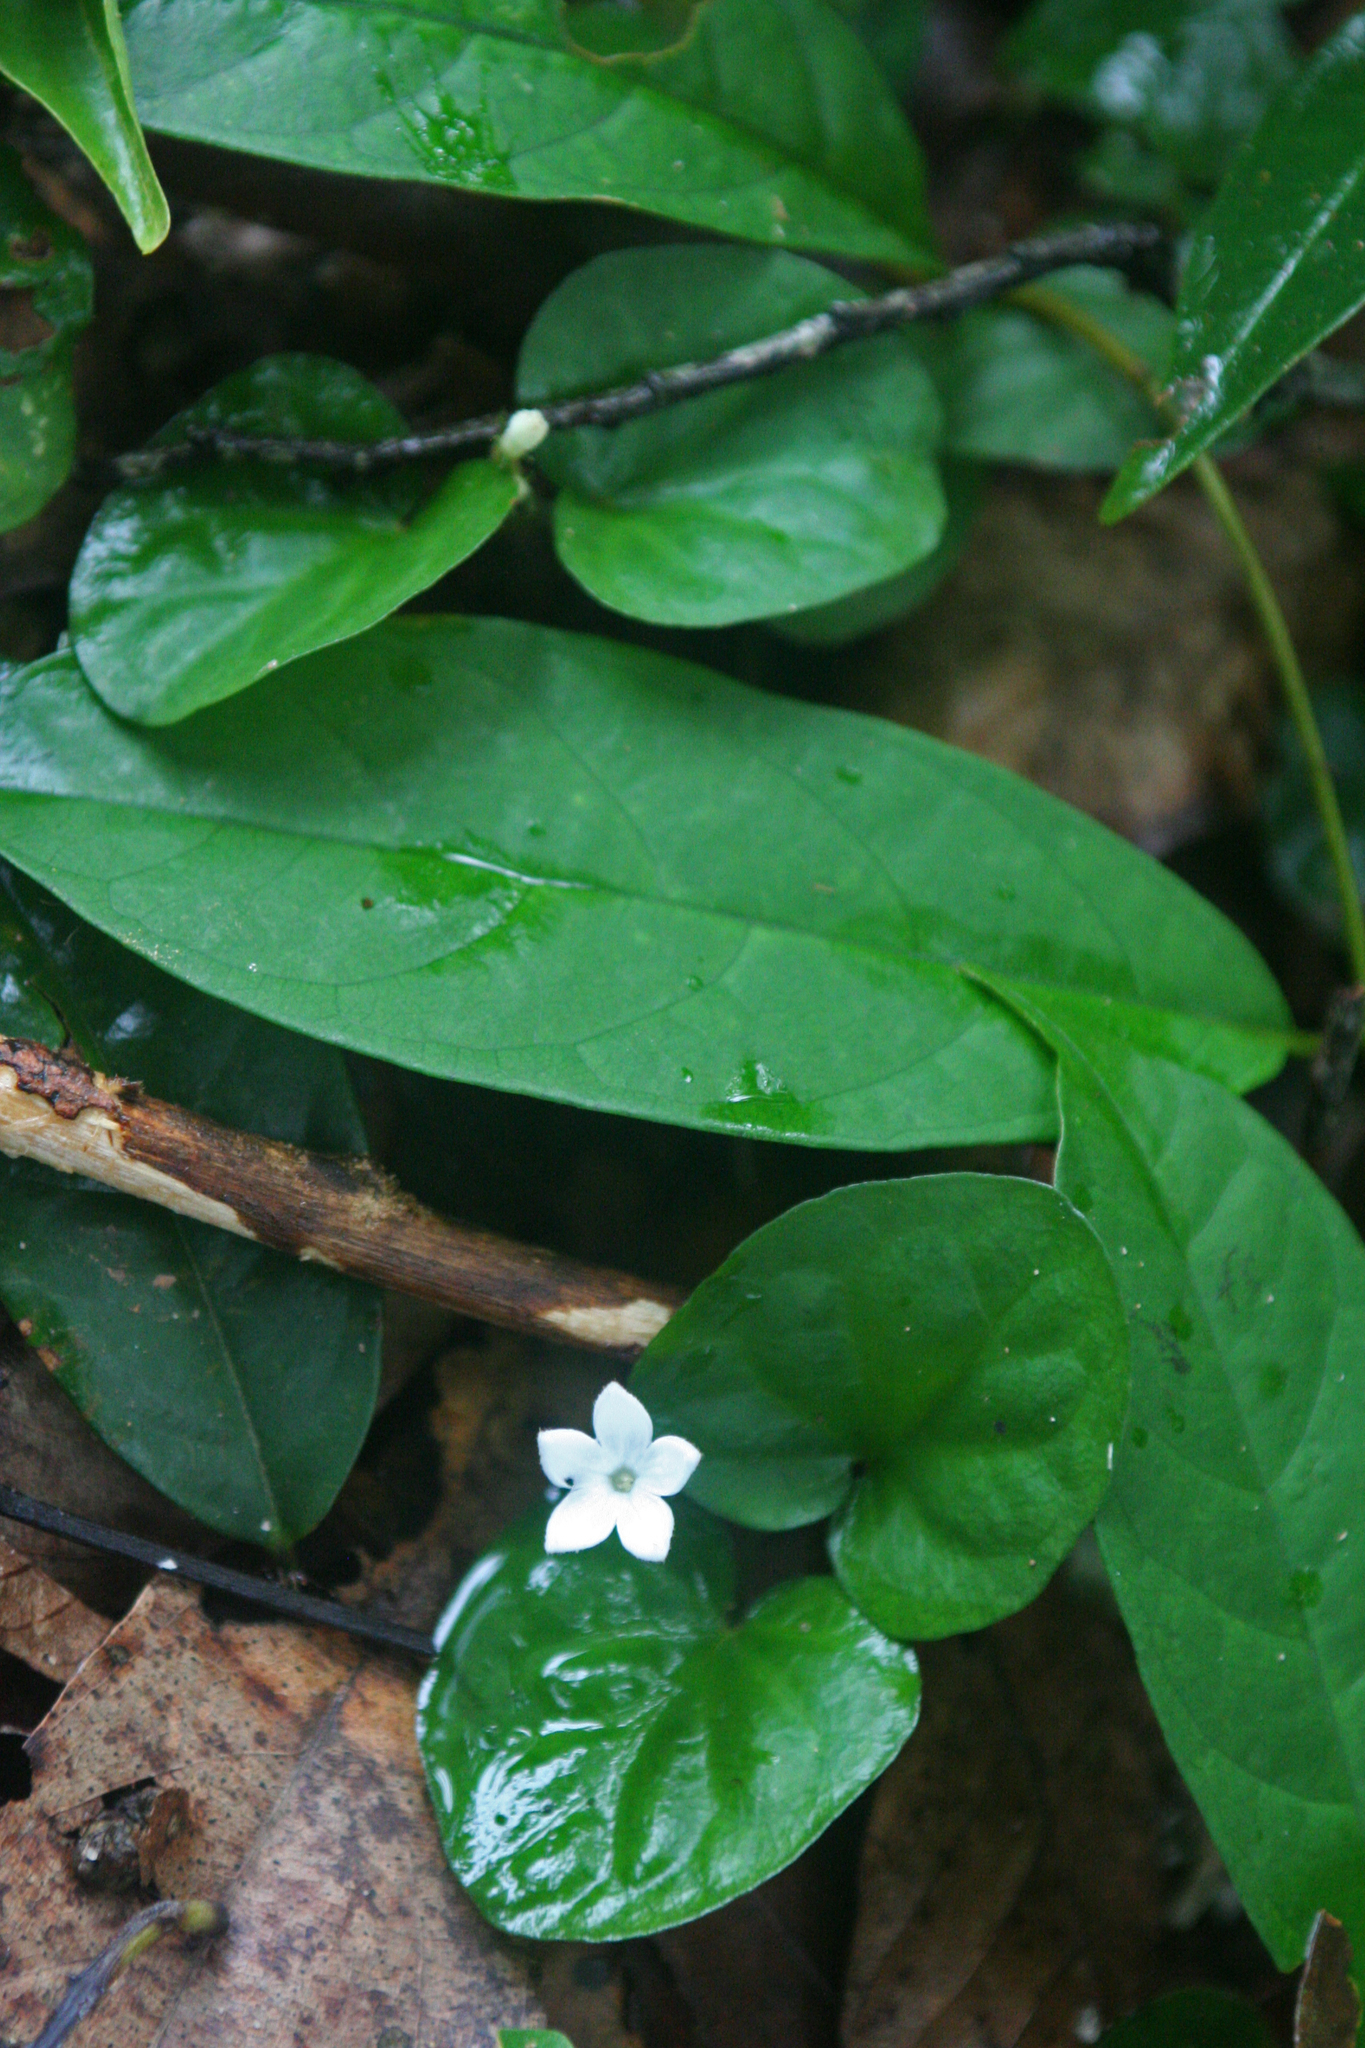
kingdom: Plantae
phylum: Tracheophyta
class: Magnoliopsida
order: Gentianales
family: Rubiaceae
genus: Geophila
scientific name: Geophila herbacea
